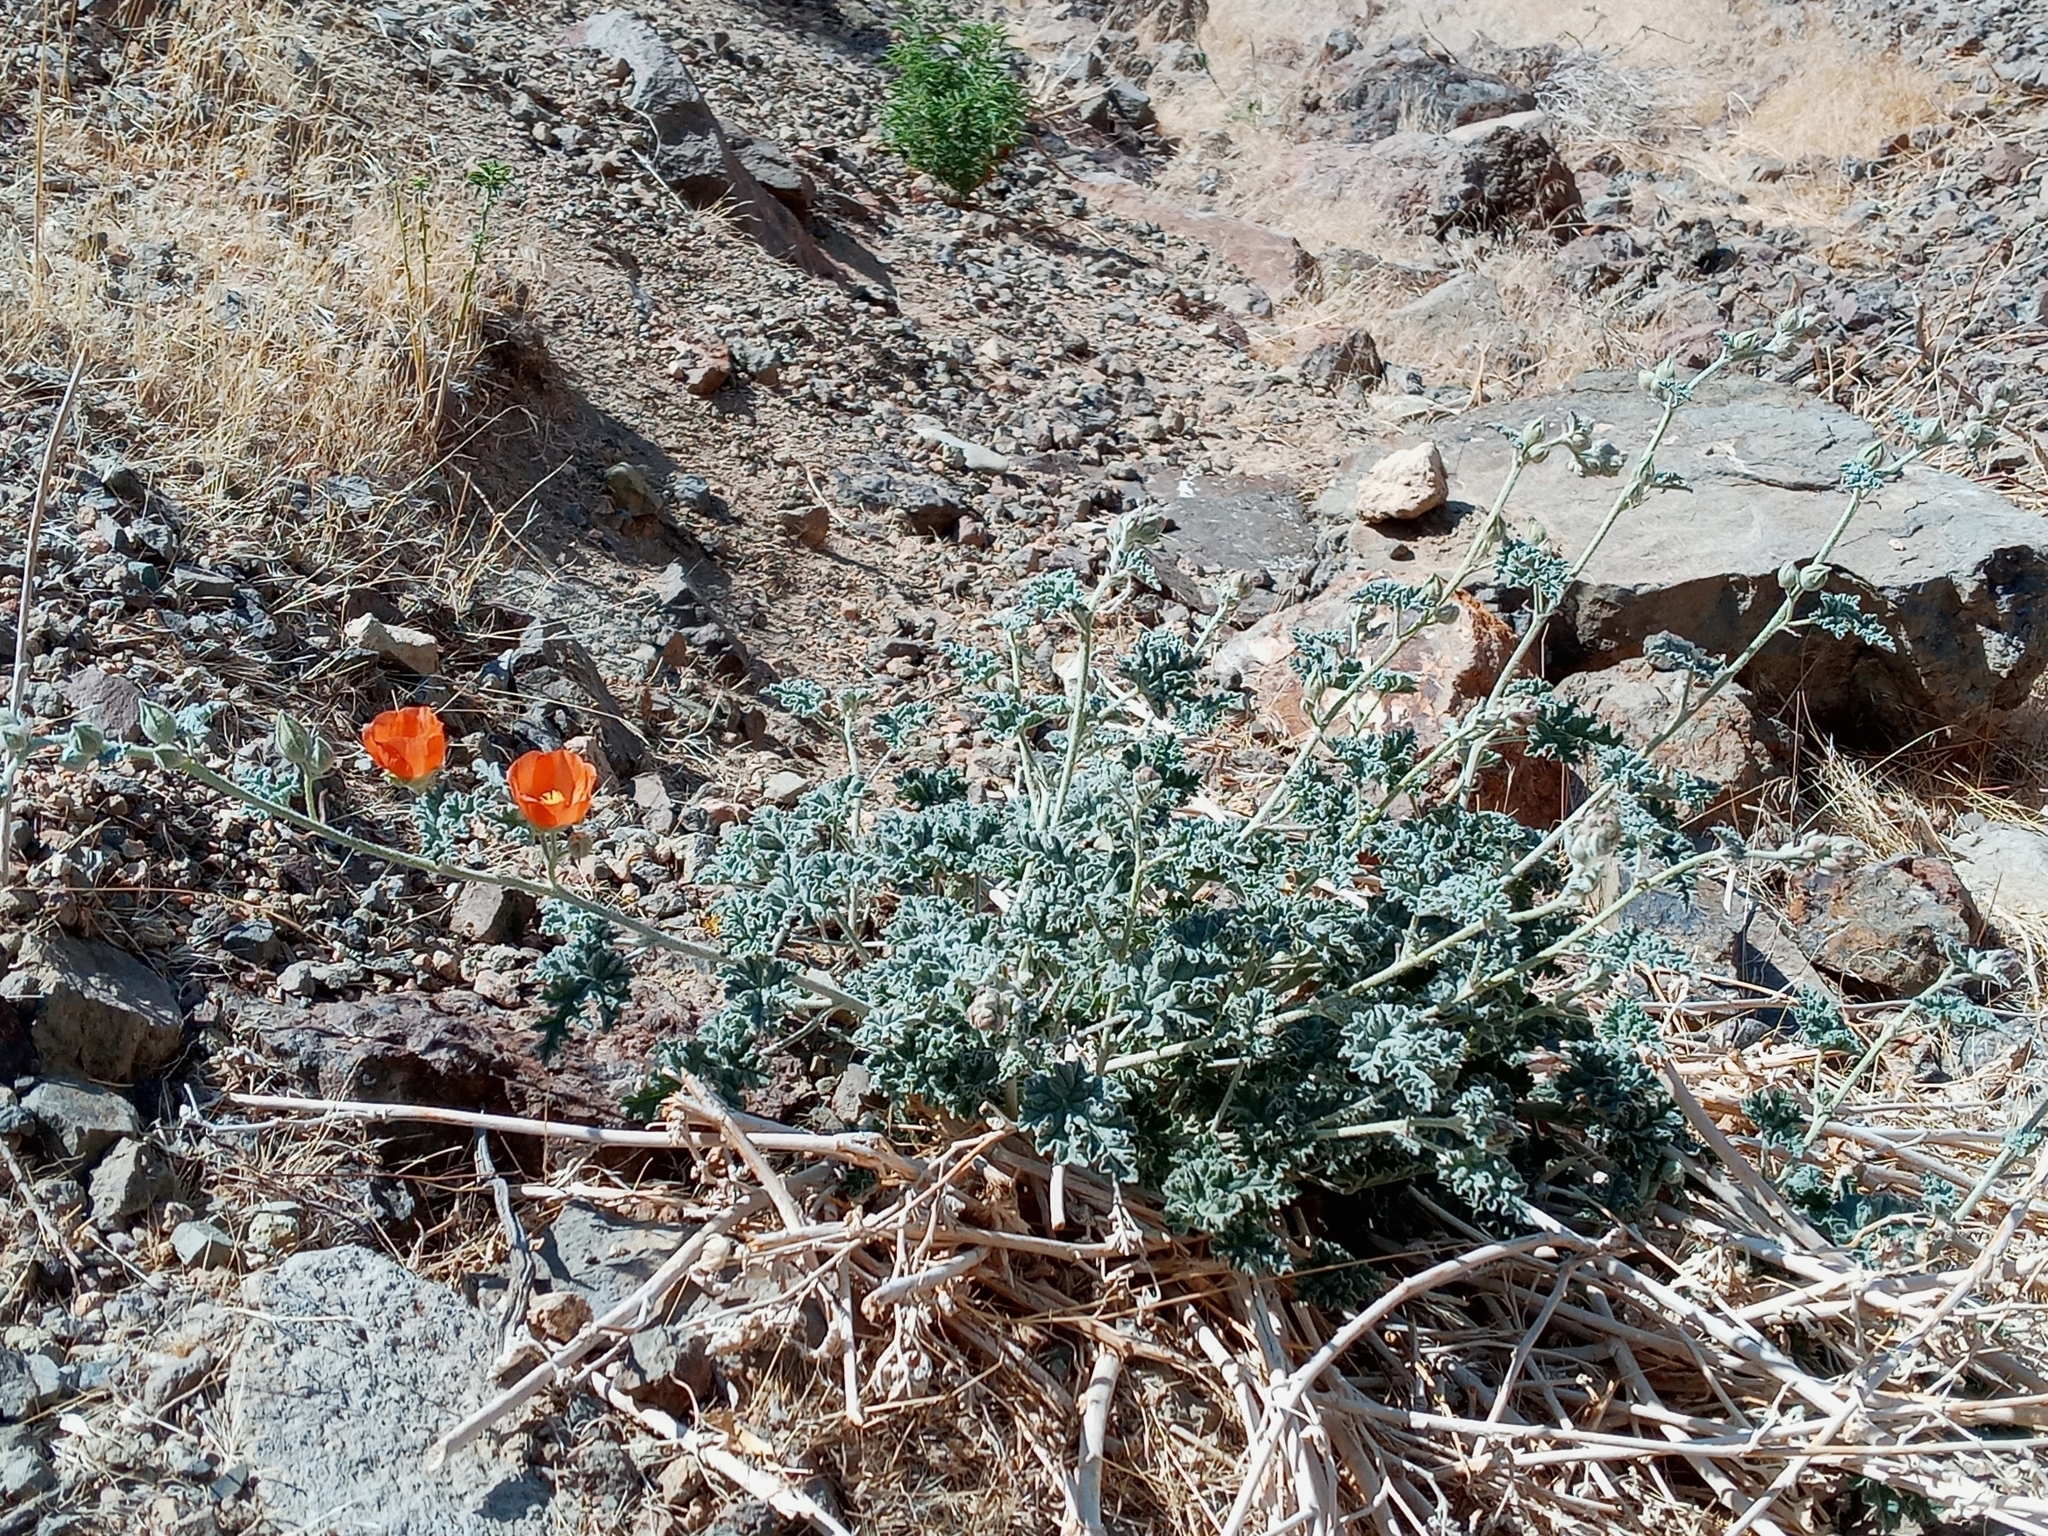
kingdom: Plantae
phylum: Tracheophyta
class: Magnoliopsida
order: Malvales
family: Malvaceae
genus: Sphaeralcea
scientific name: Sphaeralcea ambigua
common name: Apricot globe-mallow
